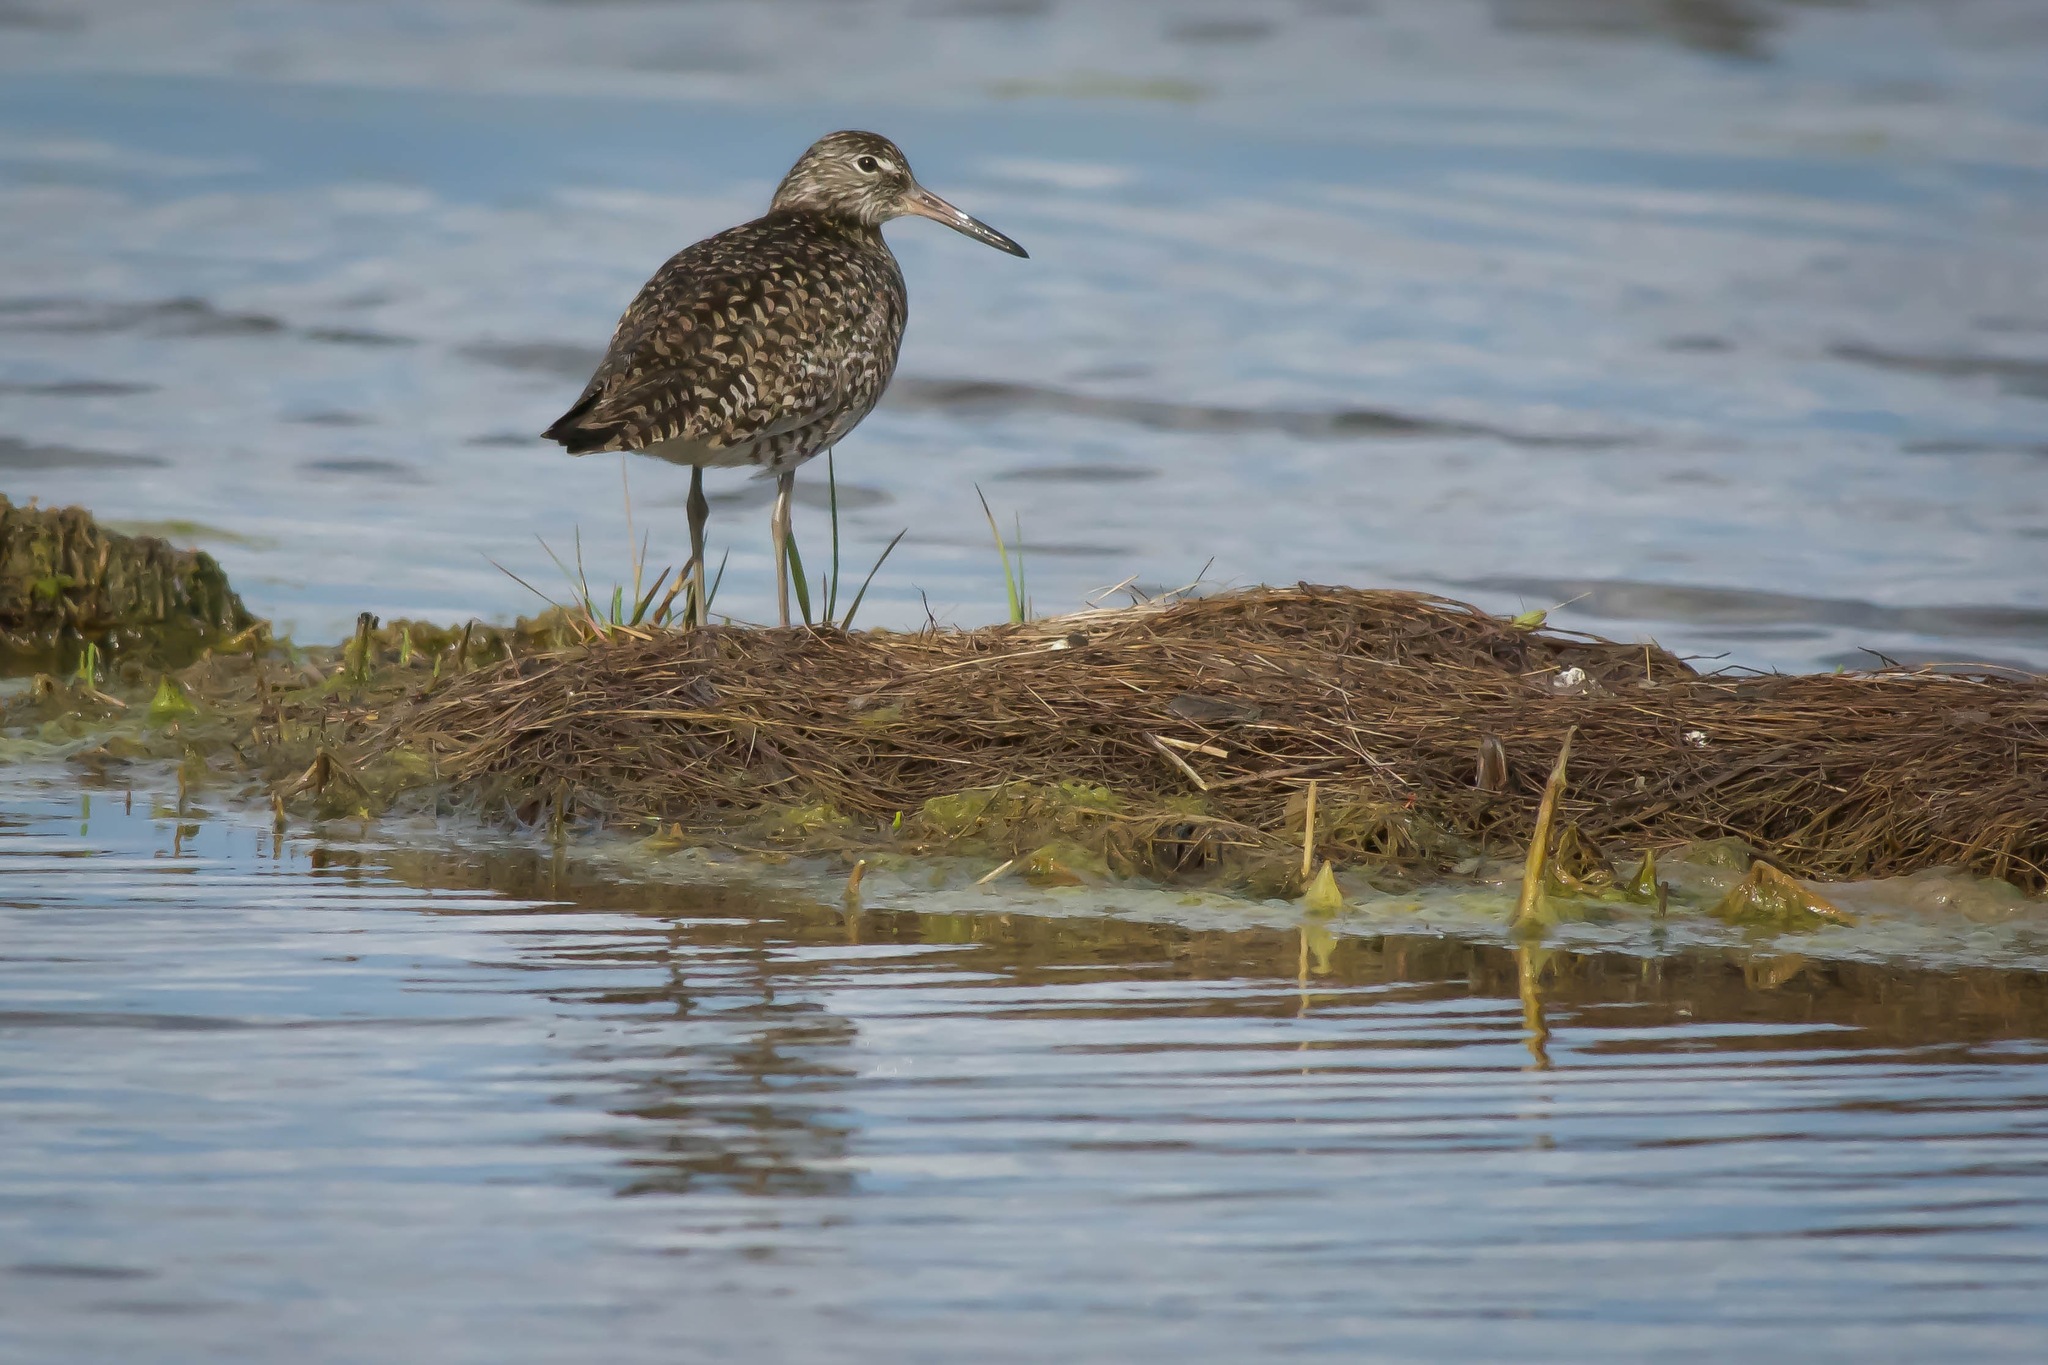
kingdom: Animalia
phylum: Chordata
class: Aves
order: Charadriiformes
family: Scolopacidae
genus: Tringa
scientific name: Tringa semipalmata
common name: Willet
